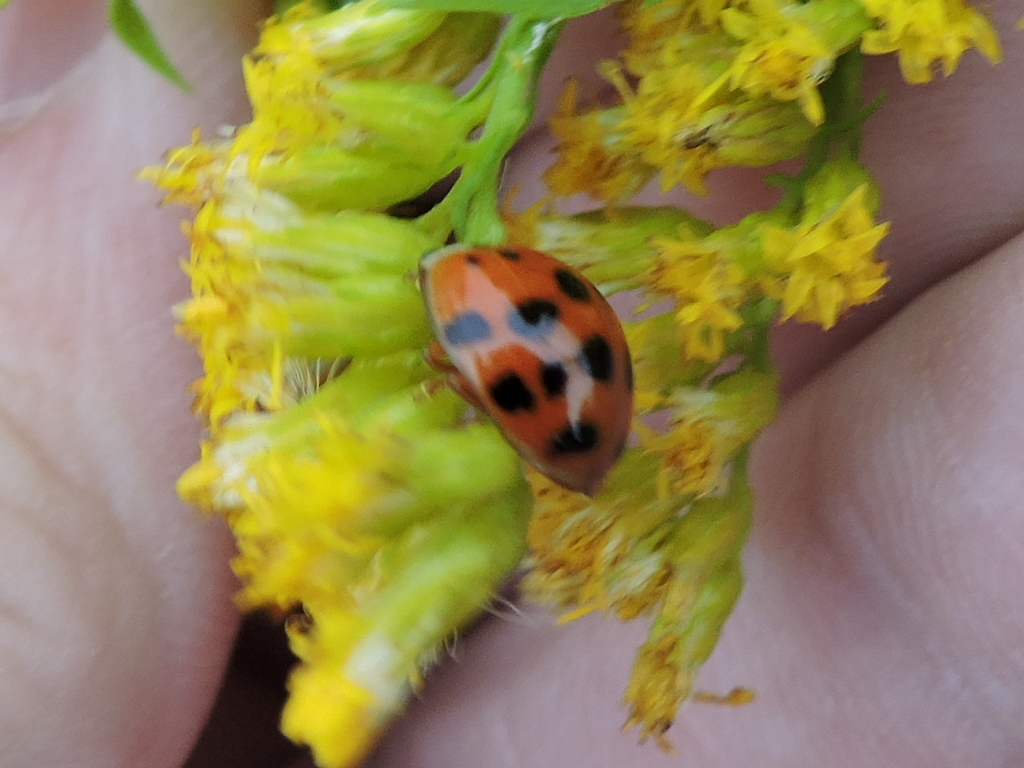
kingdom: Animalia
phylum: Arthropoda
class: Insecta
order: Coleoptera
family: Coccinellidae
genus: Harmonia
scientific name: Harmonia axyridis
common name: Harlequin ladybird
